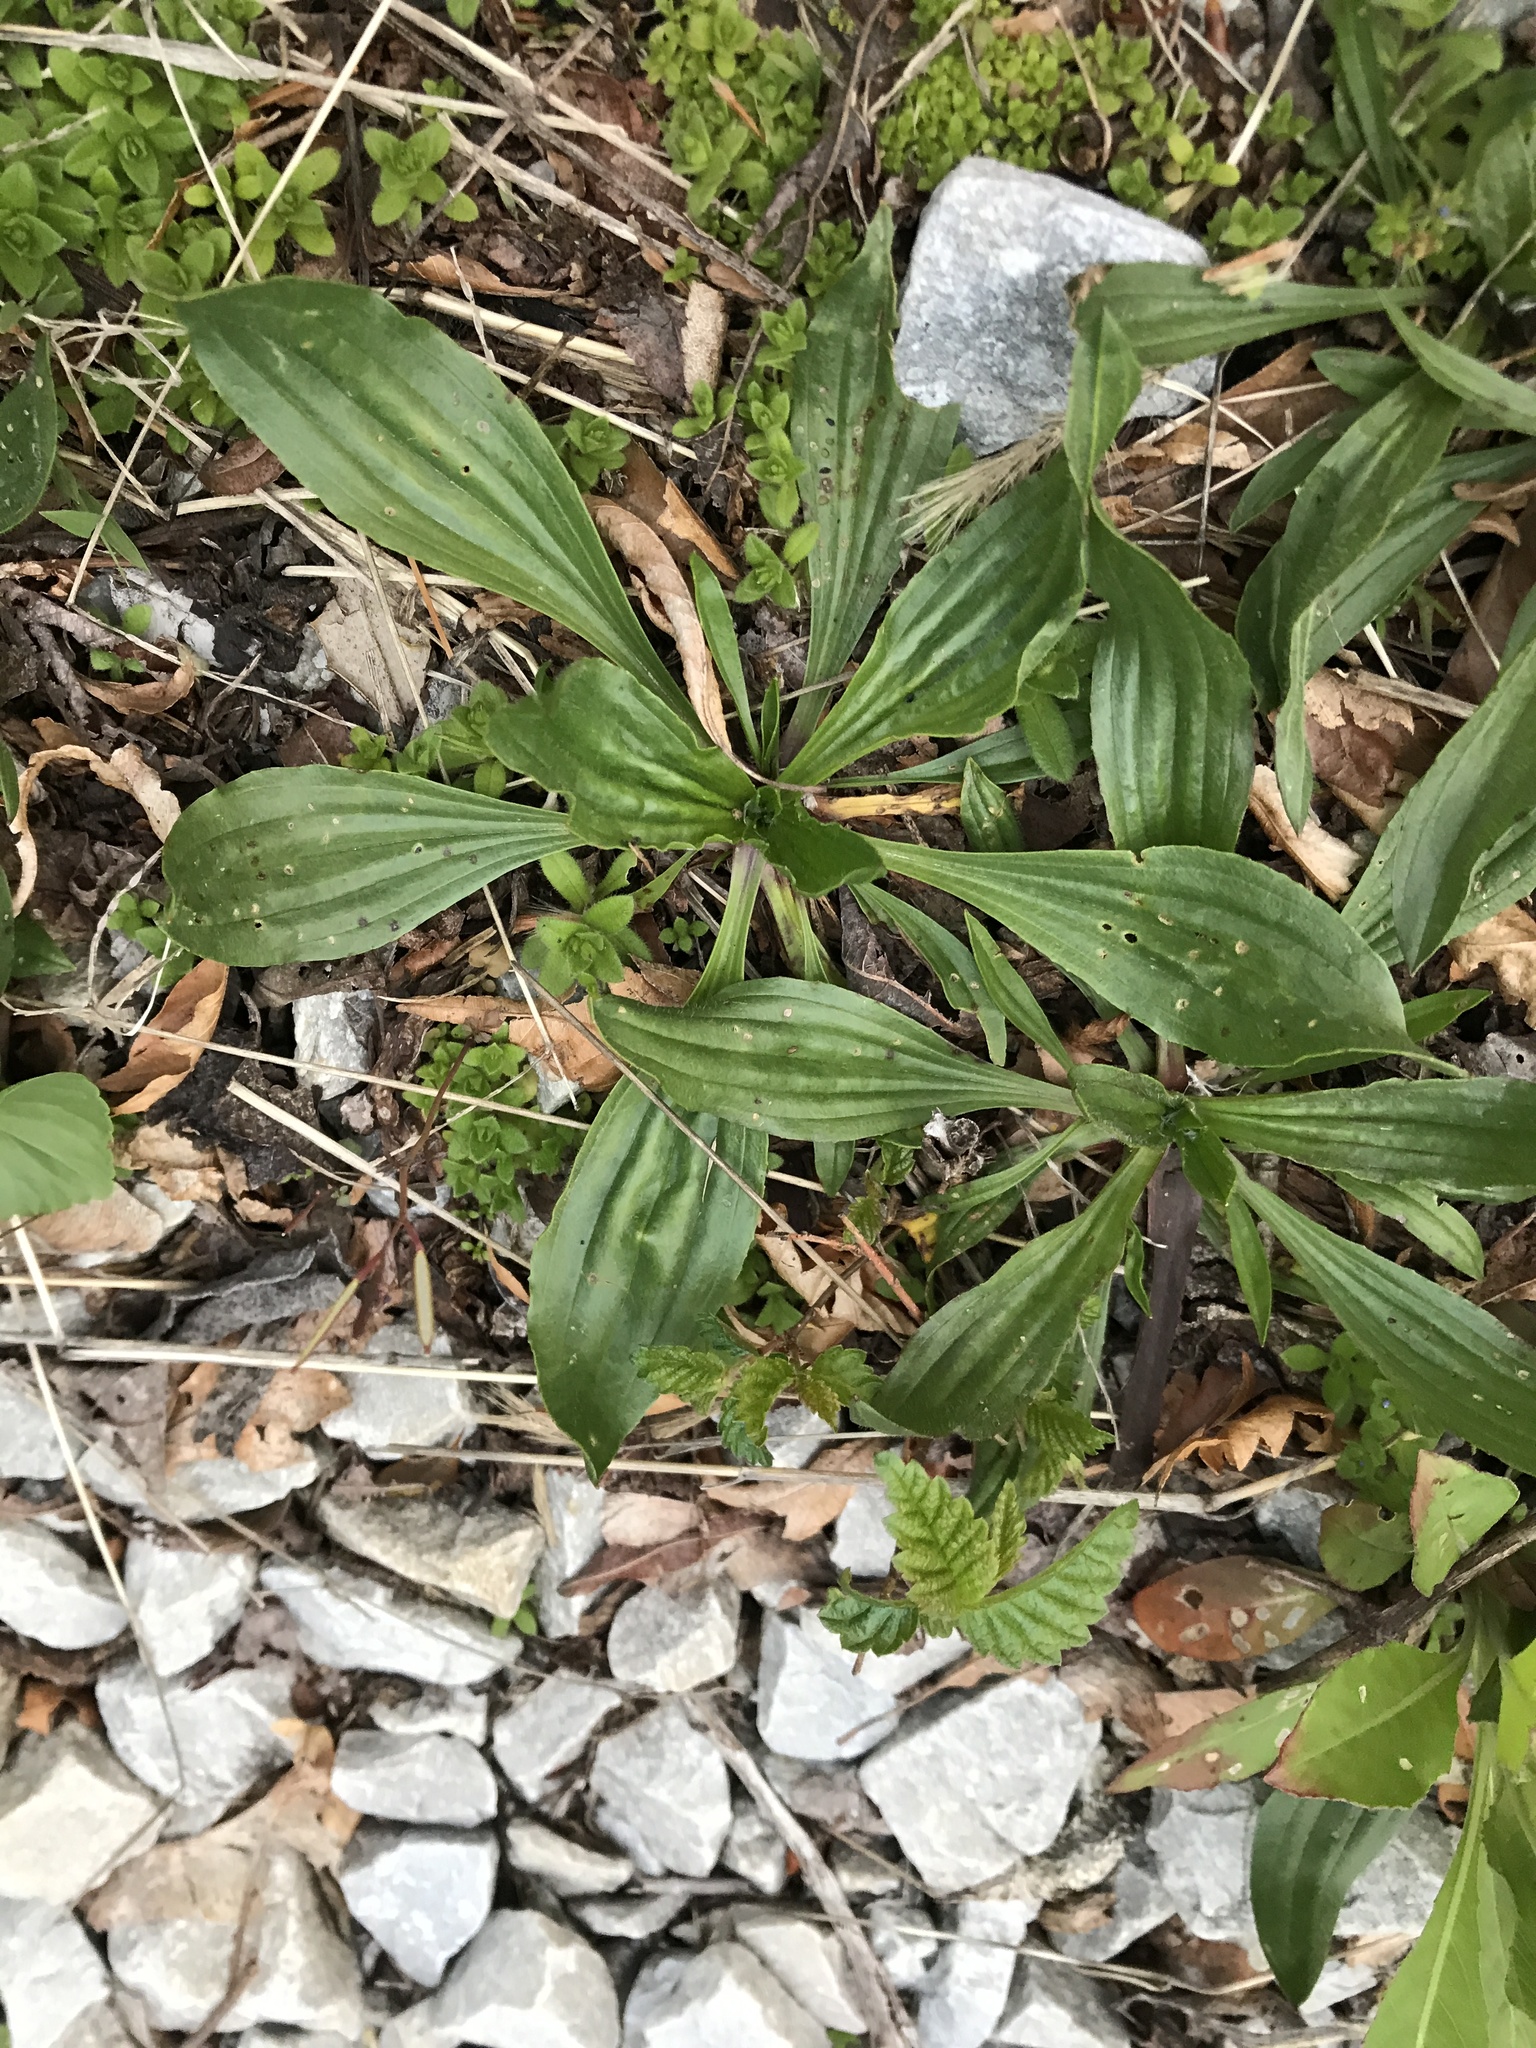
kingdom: Plantae
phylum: Tracheophyta
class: Magnoliopsida
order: Lamiales
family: Plantaginaceae
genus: Plantago
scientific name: Plantago lanceolata
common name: Ribwort plantain
